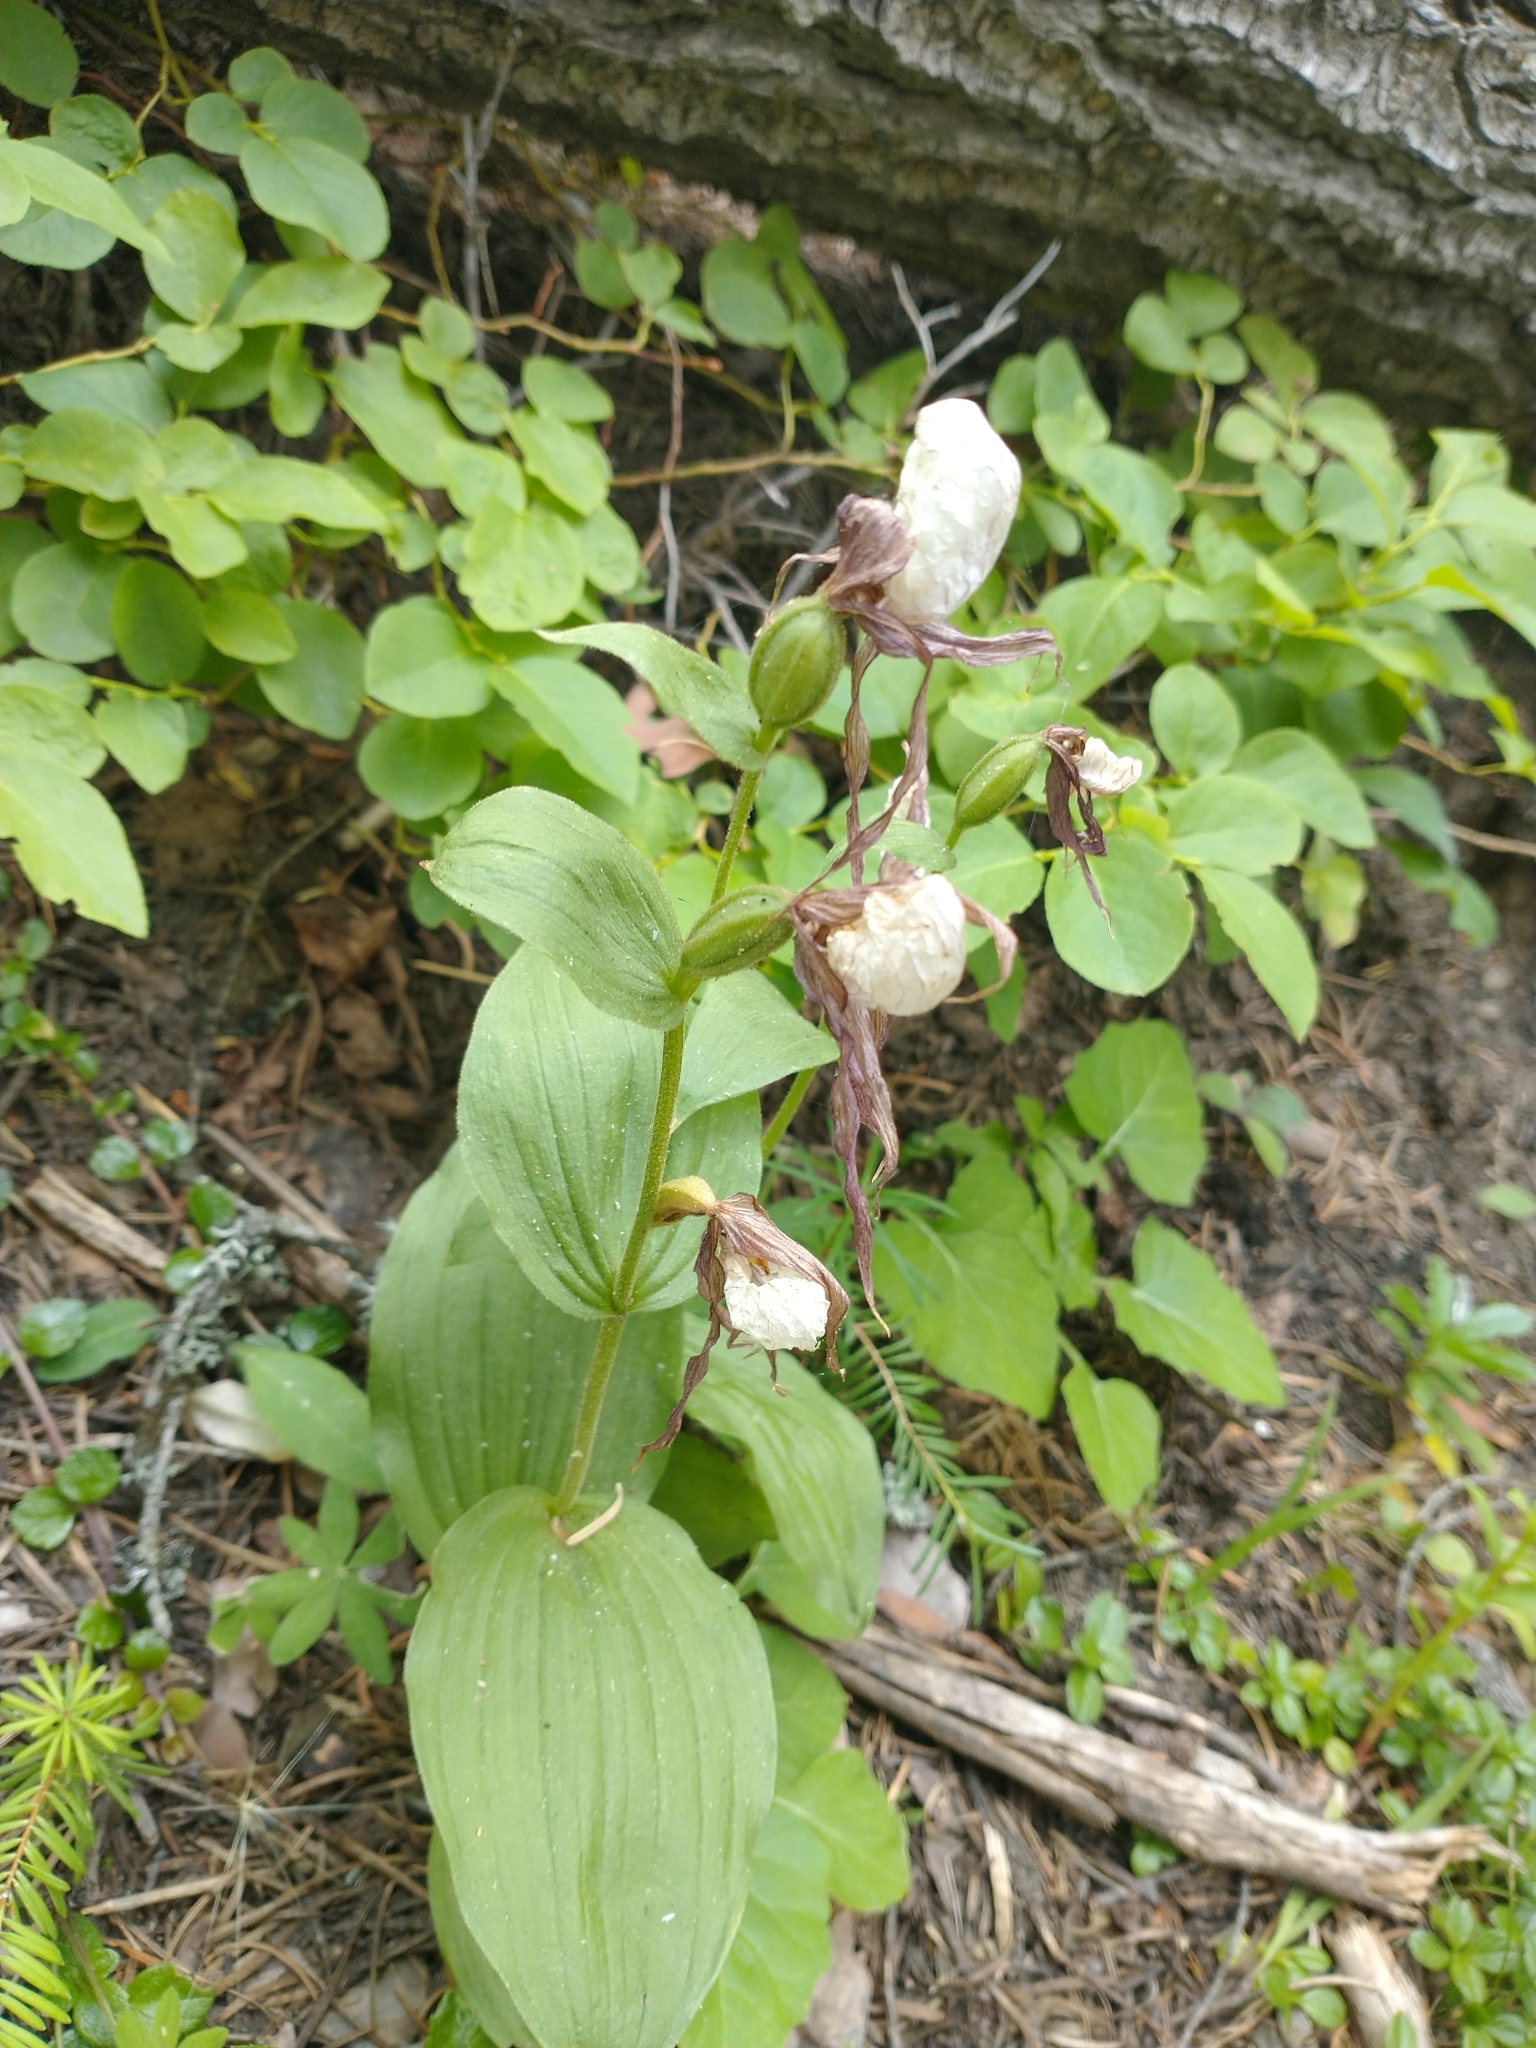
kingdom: Plantae
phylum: Tracheophyta
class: Liliopsida
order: Asparagales
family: Orchidaceae
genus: Cypripedium
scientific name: Cypripedium montanum
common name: Mountain lady's-slipper
